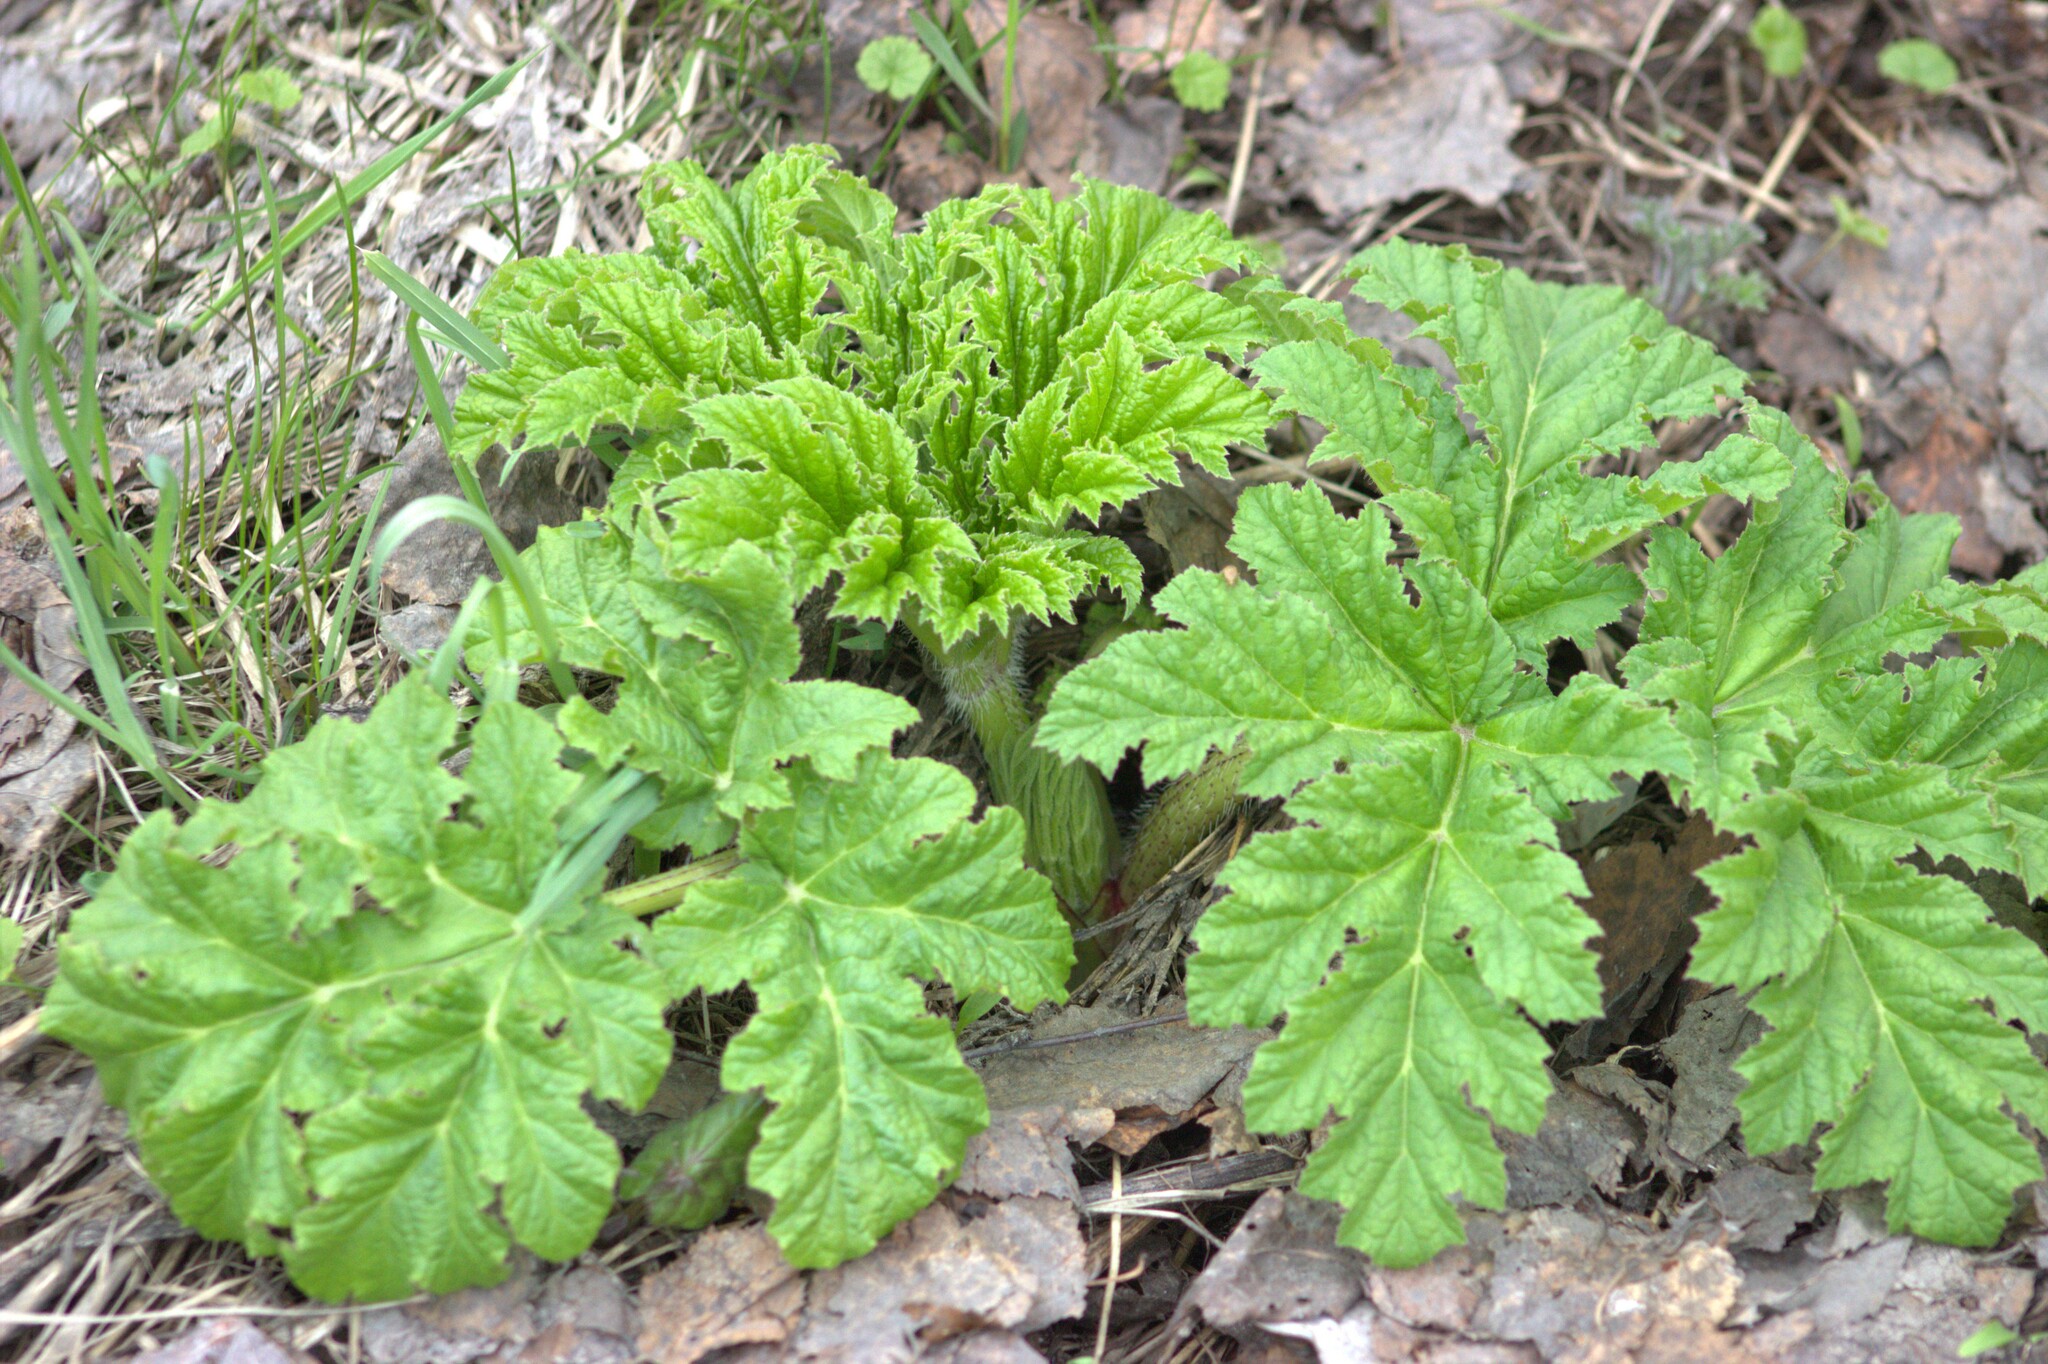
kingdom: Plantae
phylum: Tracheophyta
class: Magnoliopsida
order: Apiales
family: Apiaceae
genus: Heracleum
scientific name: Heracleum sosnowskyi
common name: Sosnowsky's hogweed
